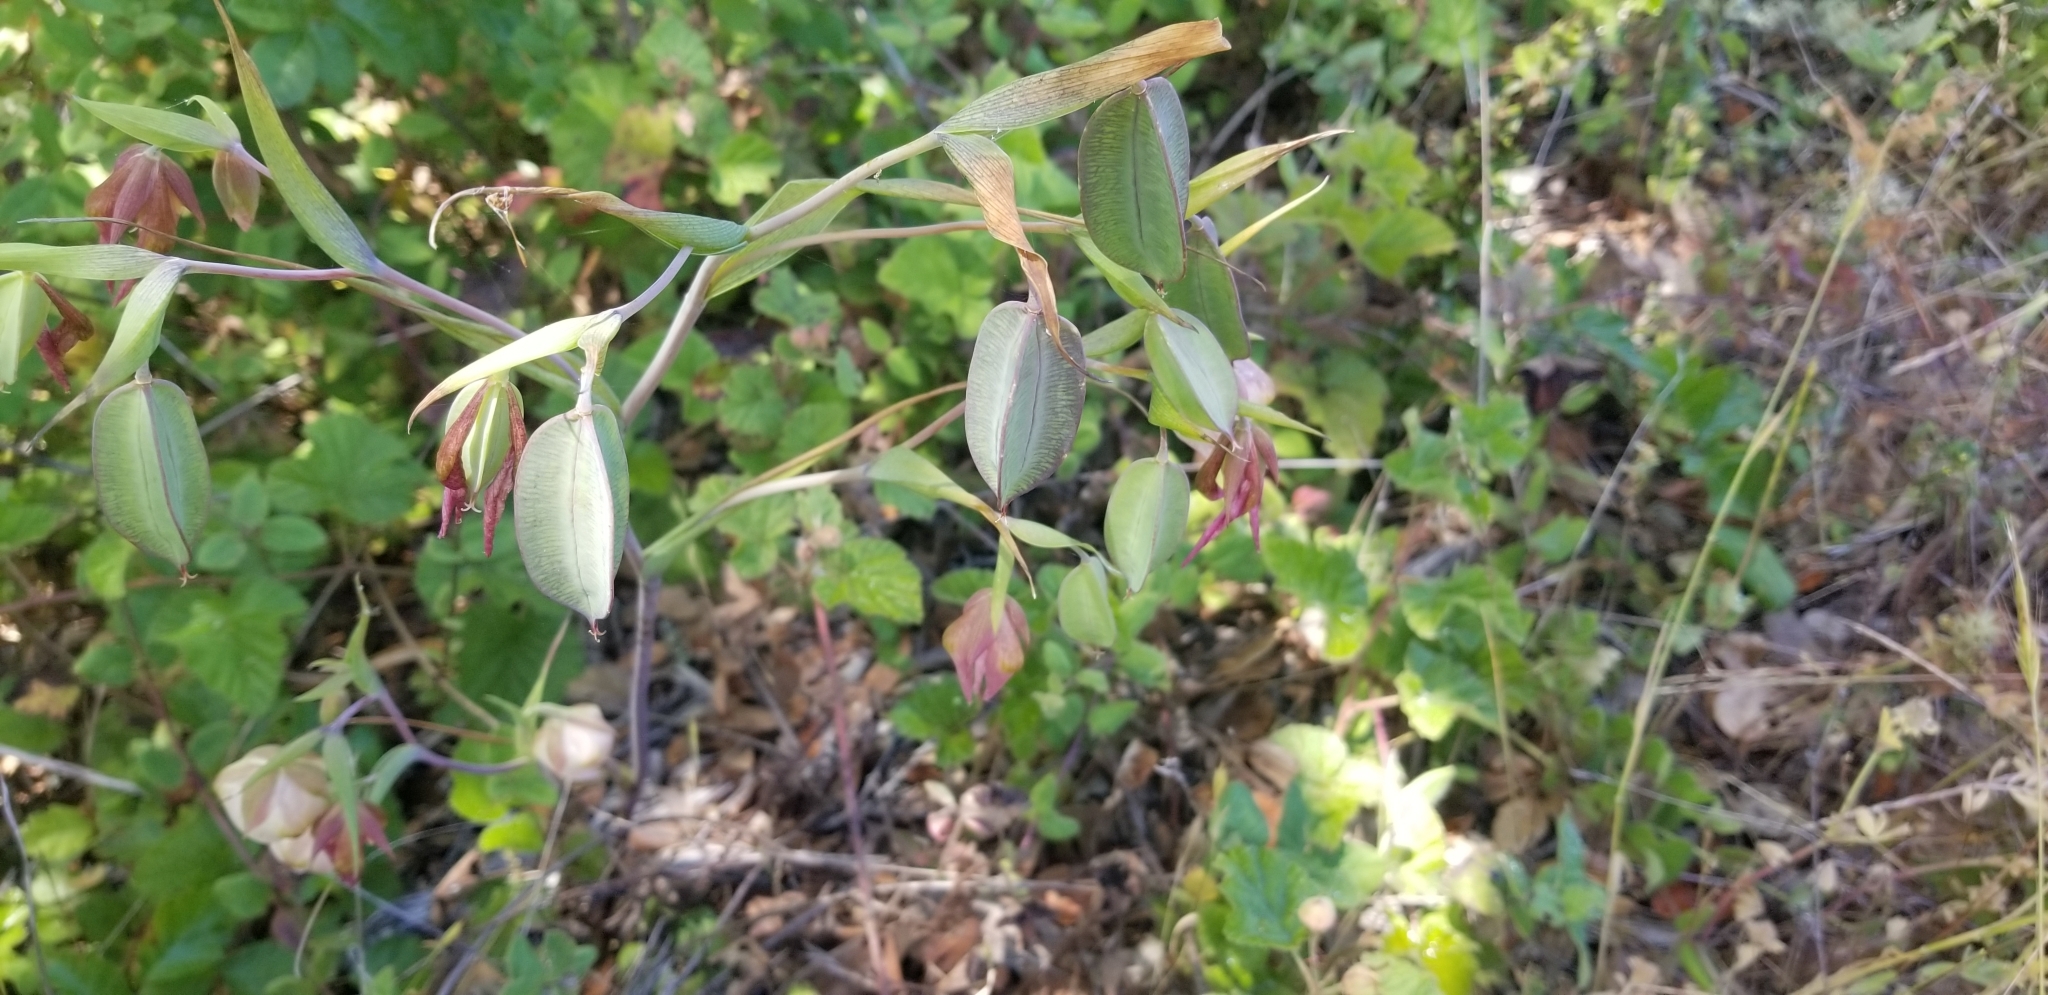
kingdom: Plantae
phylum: Tracheophyta
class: Liliopsida
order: Liliales
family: Liliaceae
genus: Calochortus
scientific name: Calochortus albus
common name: Fairy-lantern
